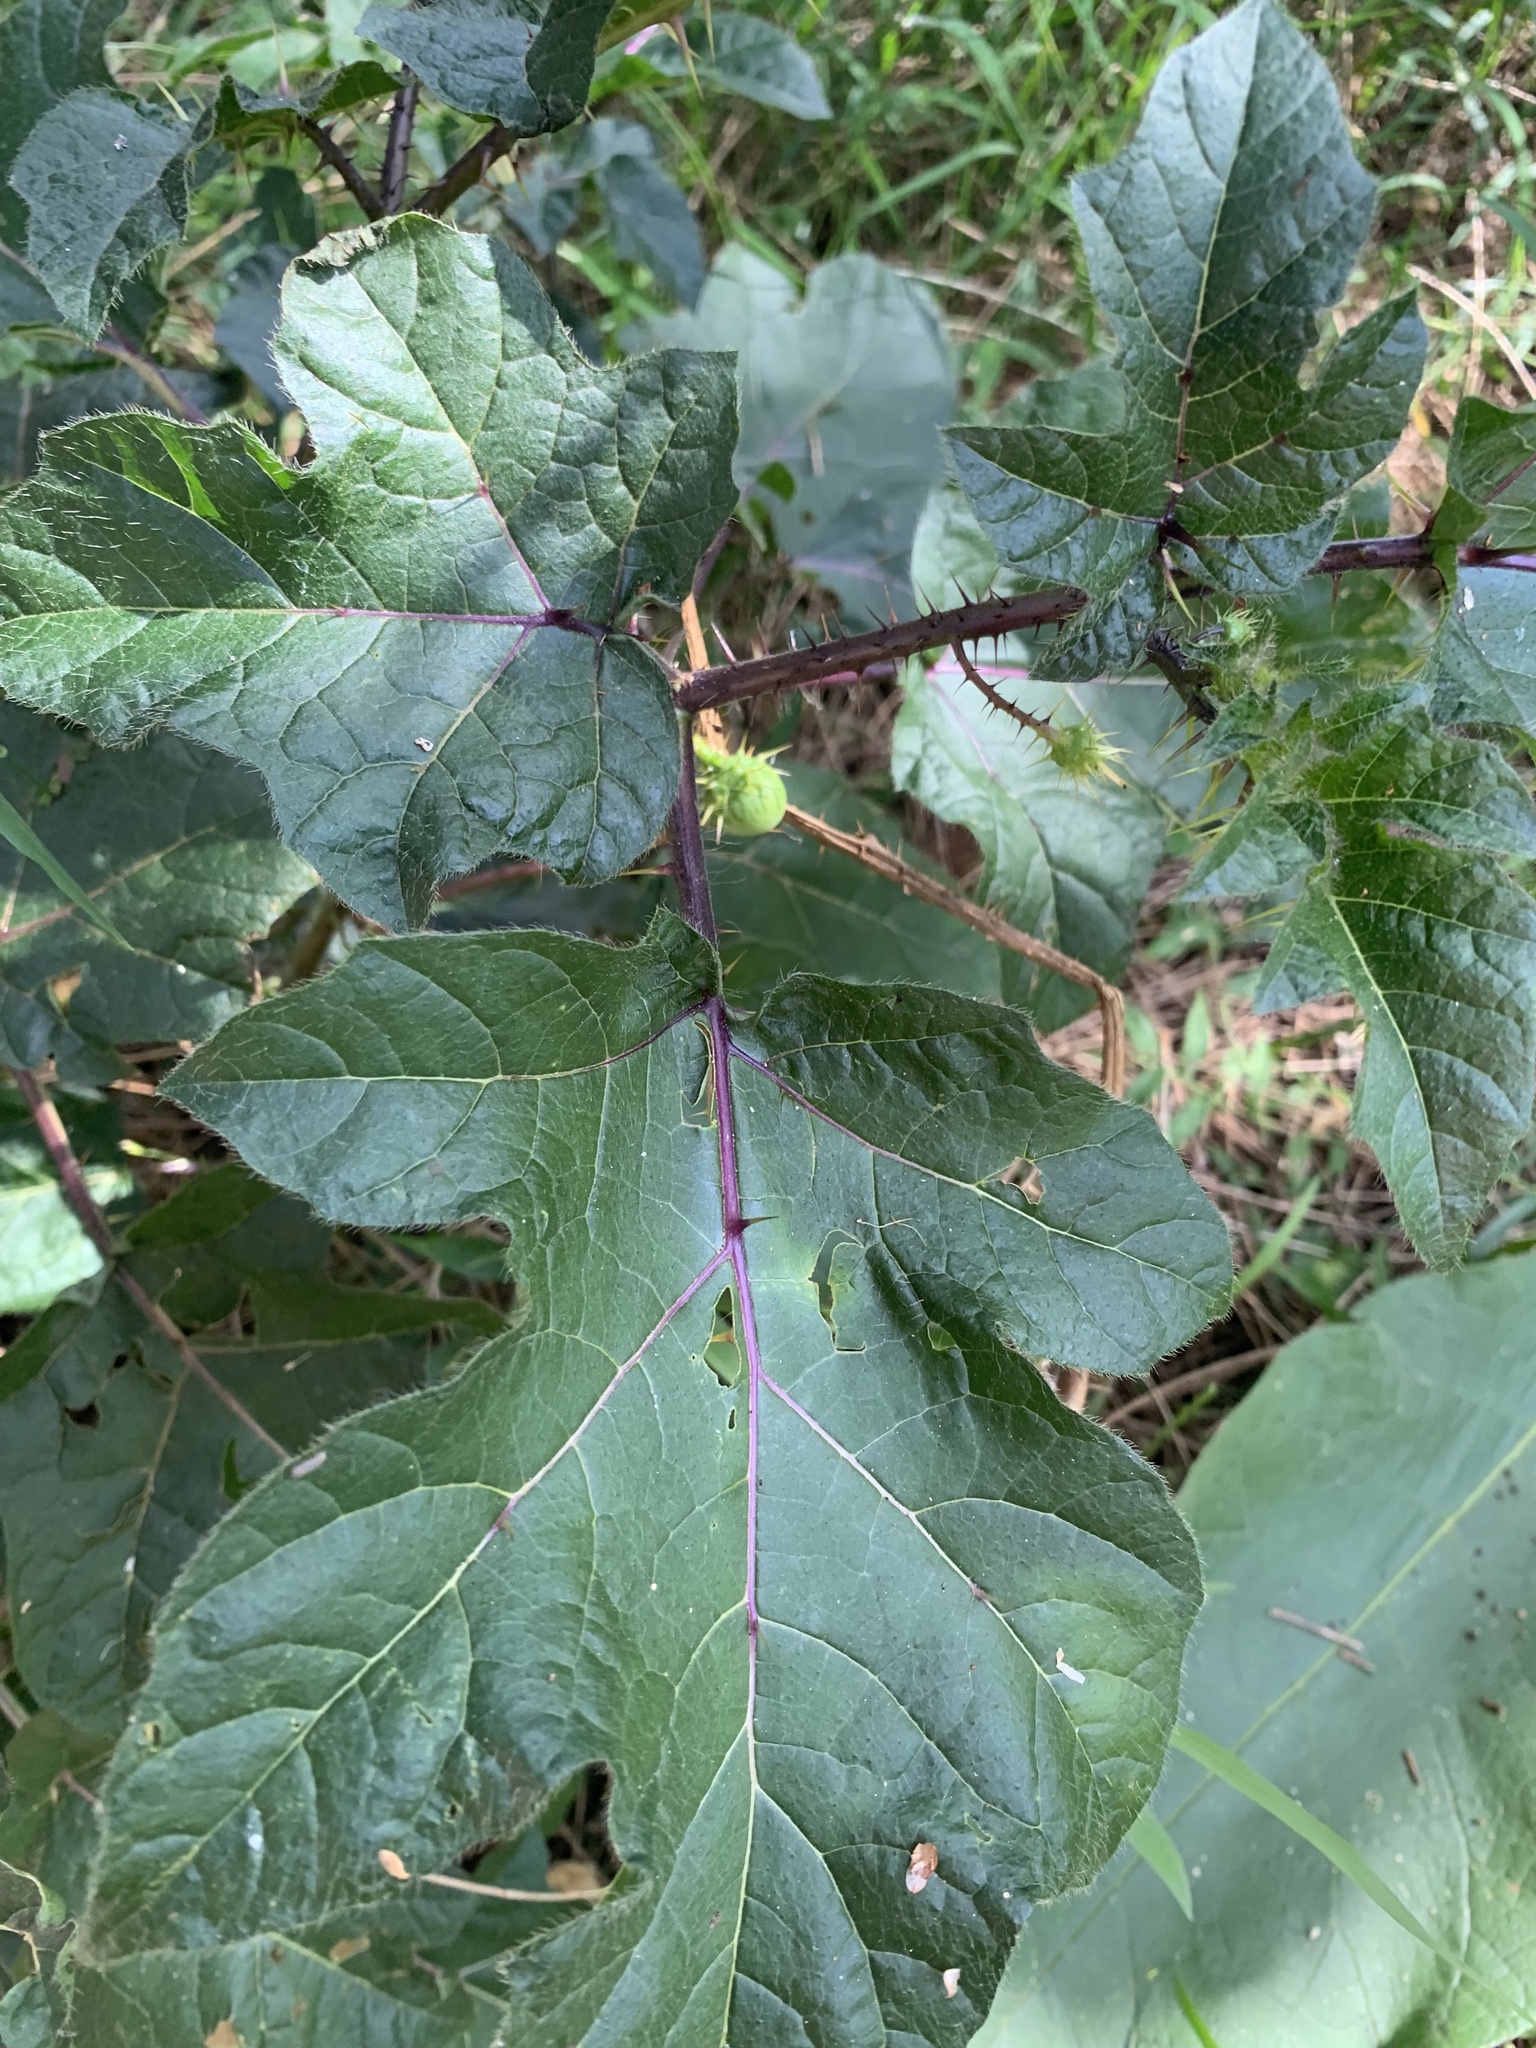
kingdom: Plantae
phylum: Tracheophyta
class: Magnoliopsida
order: Solanales
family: Solanaceae
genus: Solanum
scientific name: Solanum capsicoides
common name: Cockroach berry
